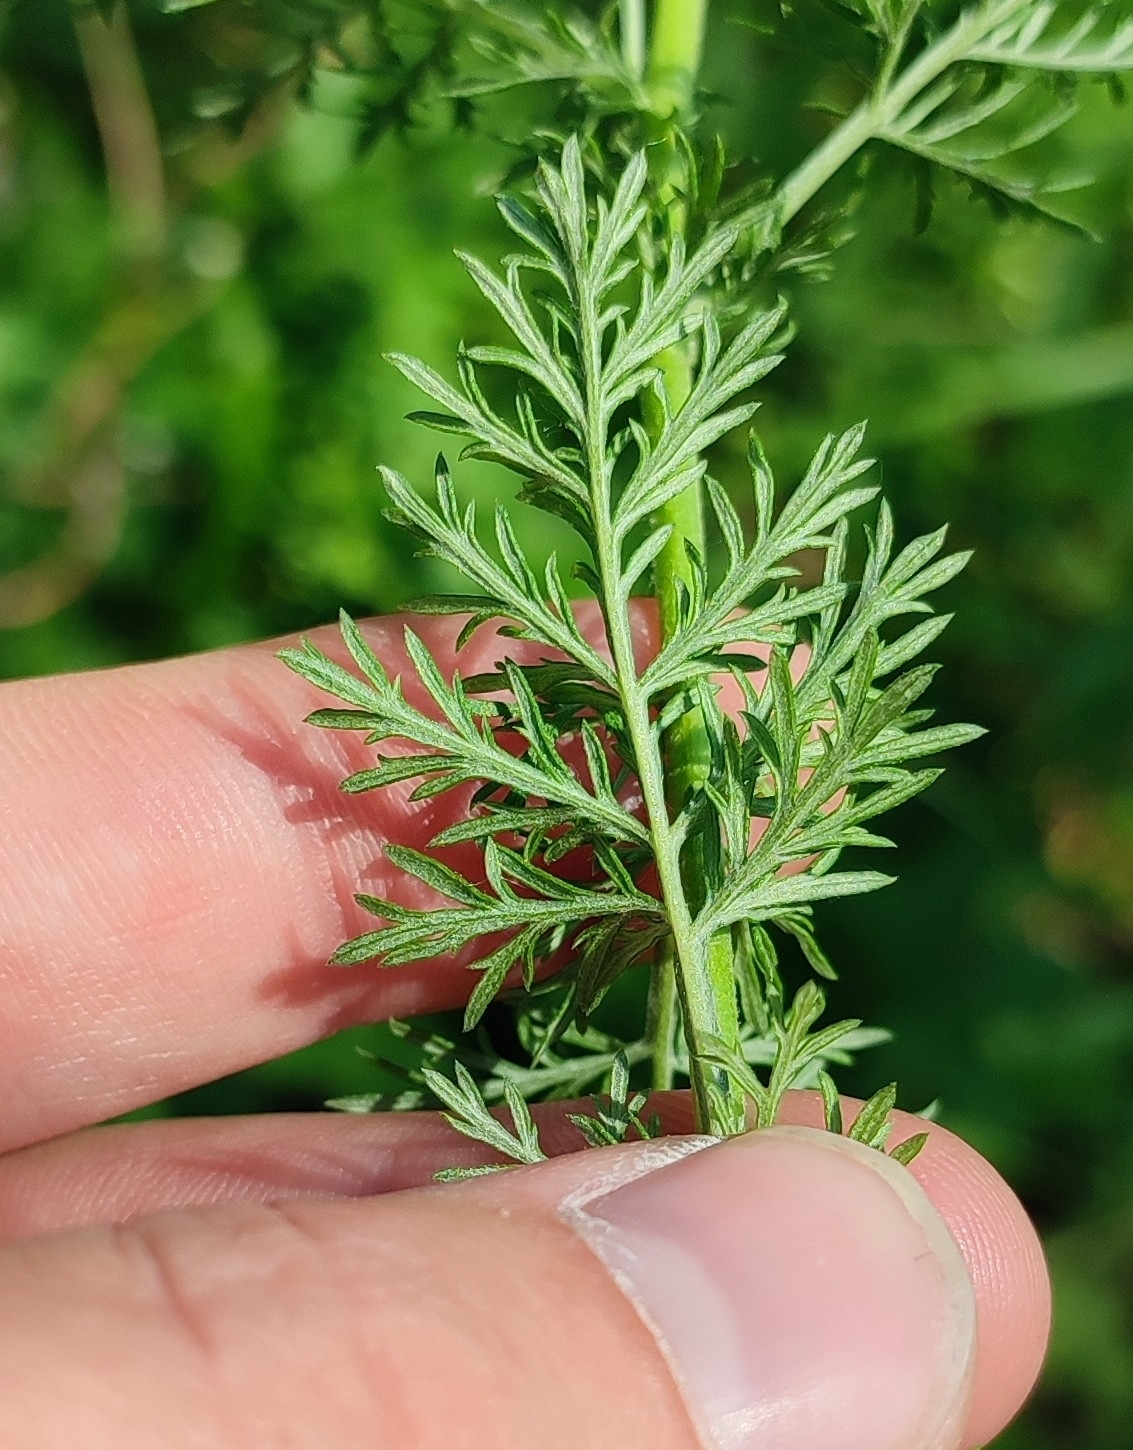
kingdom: Plantae
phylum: Tracheophyta
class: Magnoliopsida
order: Asterales
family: Asteraceae
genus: Artemisia
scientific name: Artemisia abrotanum
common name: Southernwood
